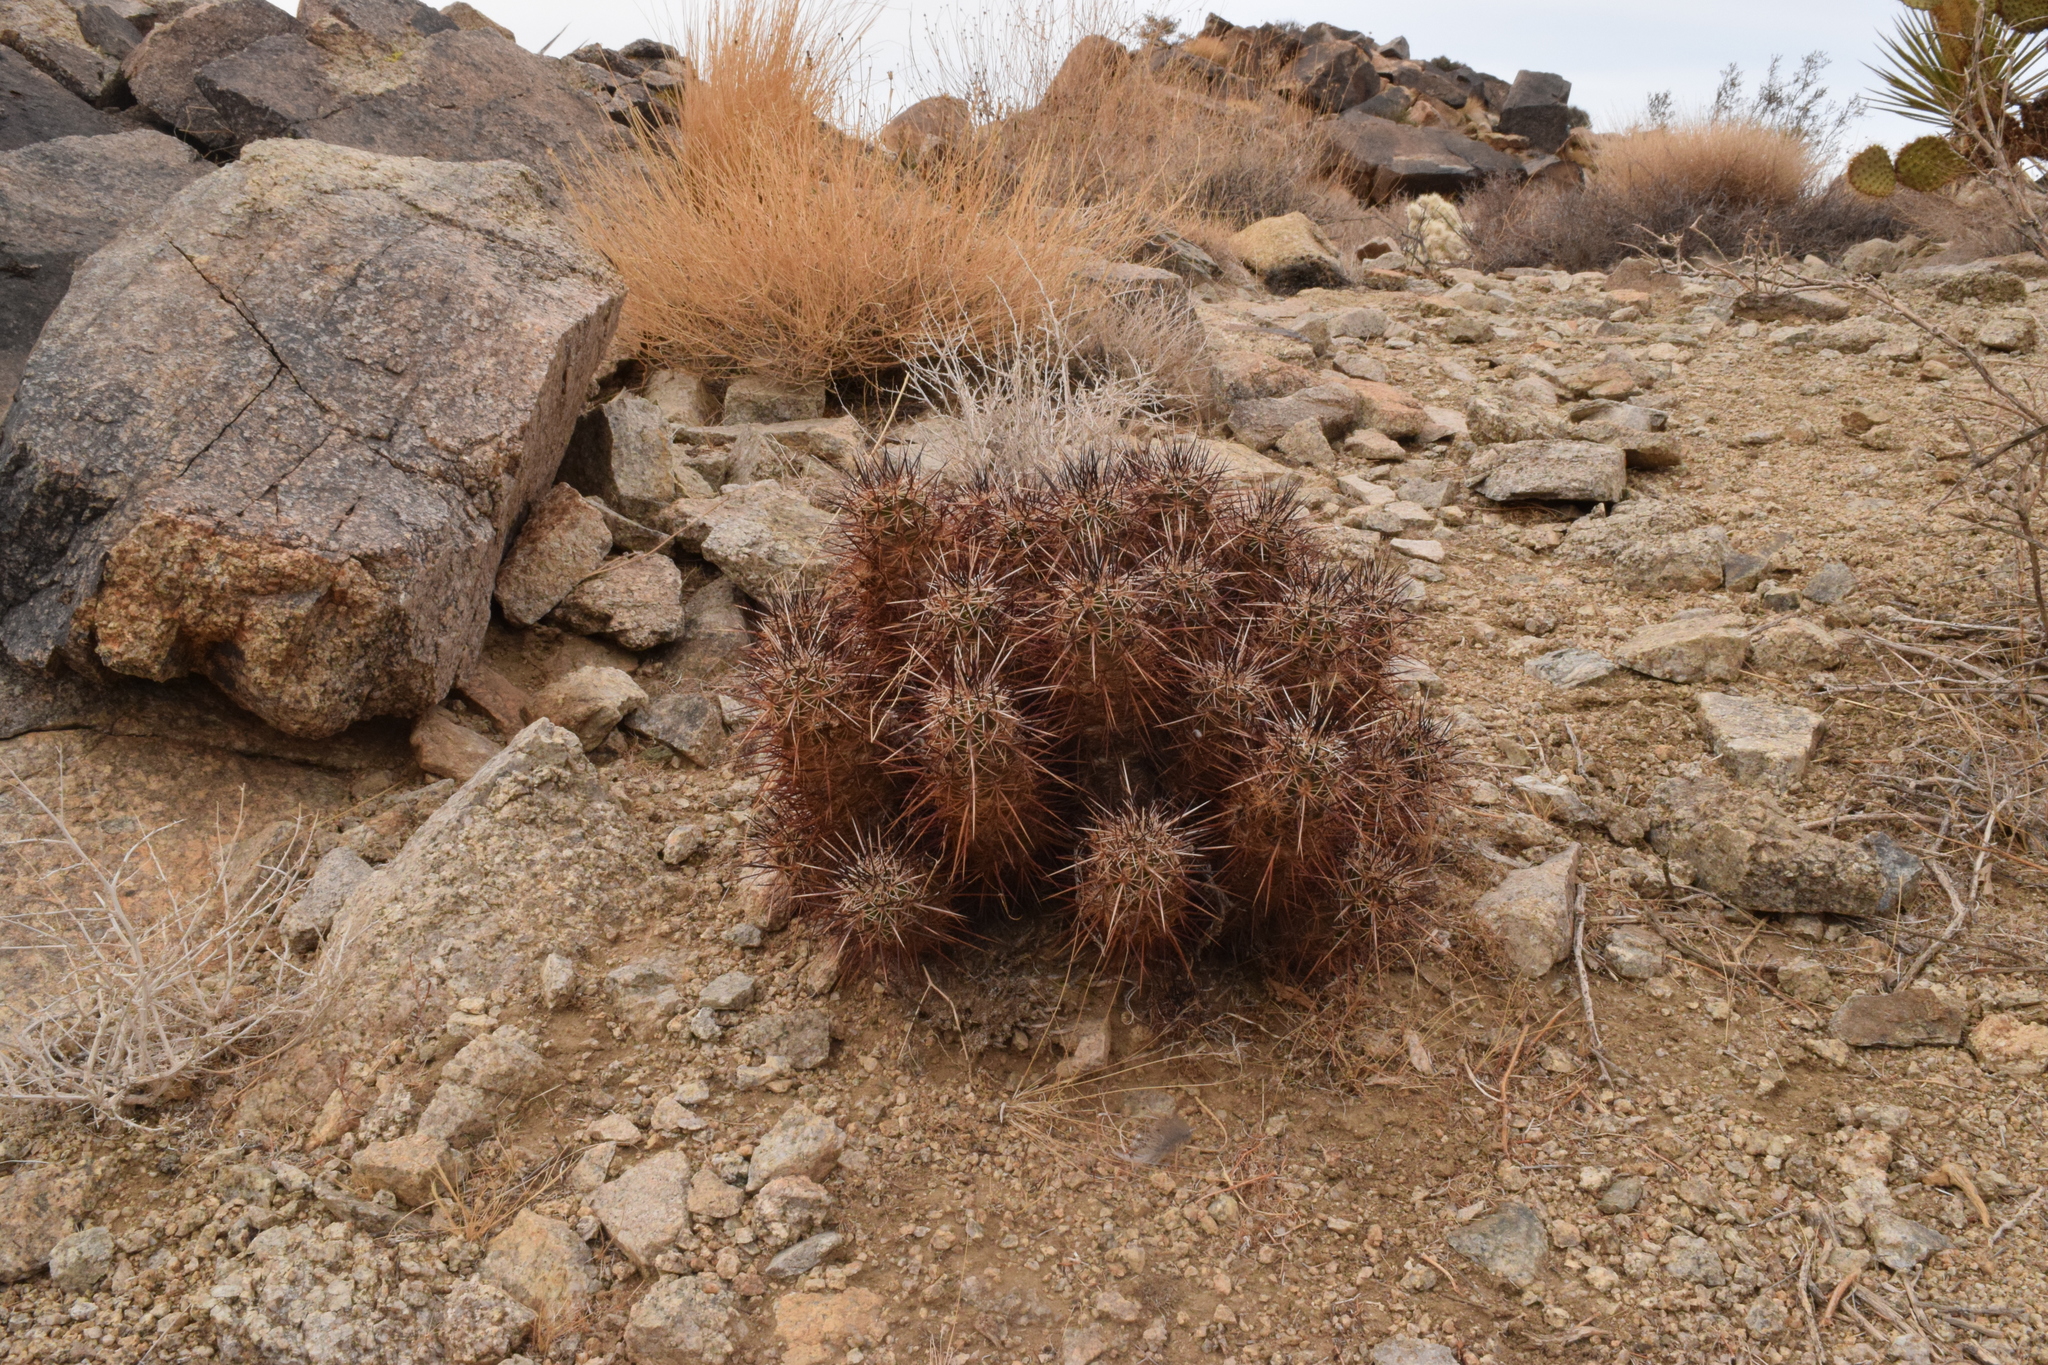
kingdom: Plantae
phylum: Tracheophyta
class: Magnoliopsida
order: Caryophyllales
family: Cactaceae
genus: Echinocereus
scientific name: Echinocereus engelmannii
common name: Engelmann's hedgehog cactus
